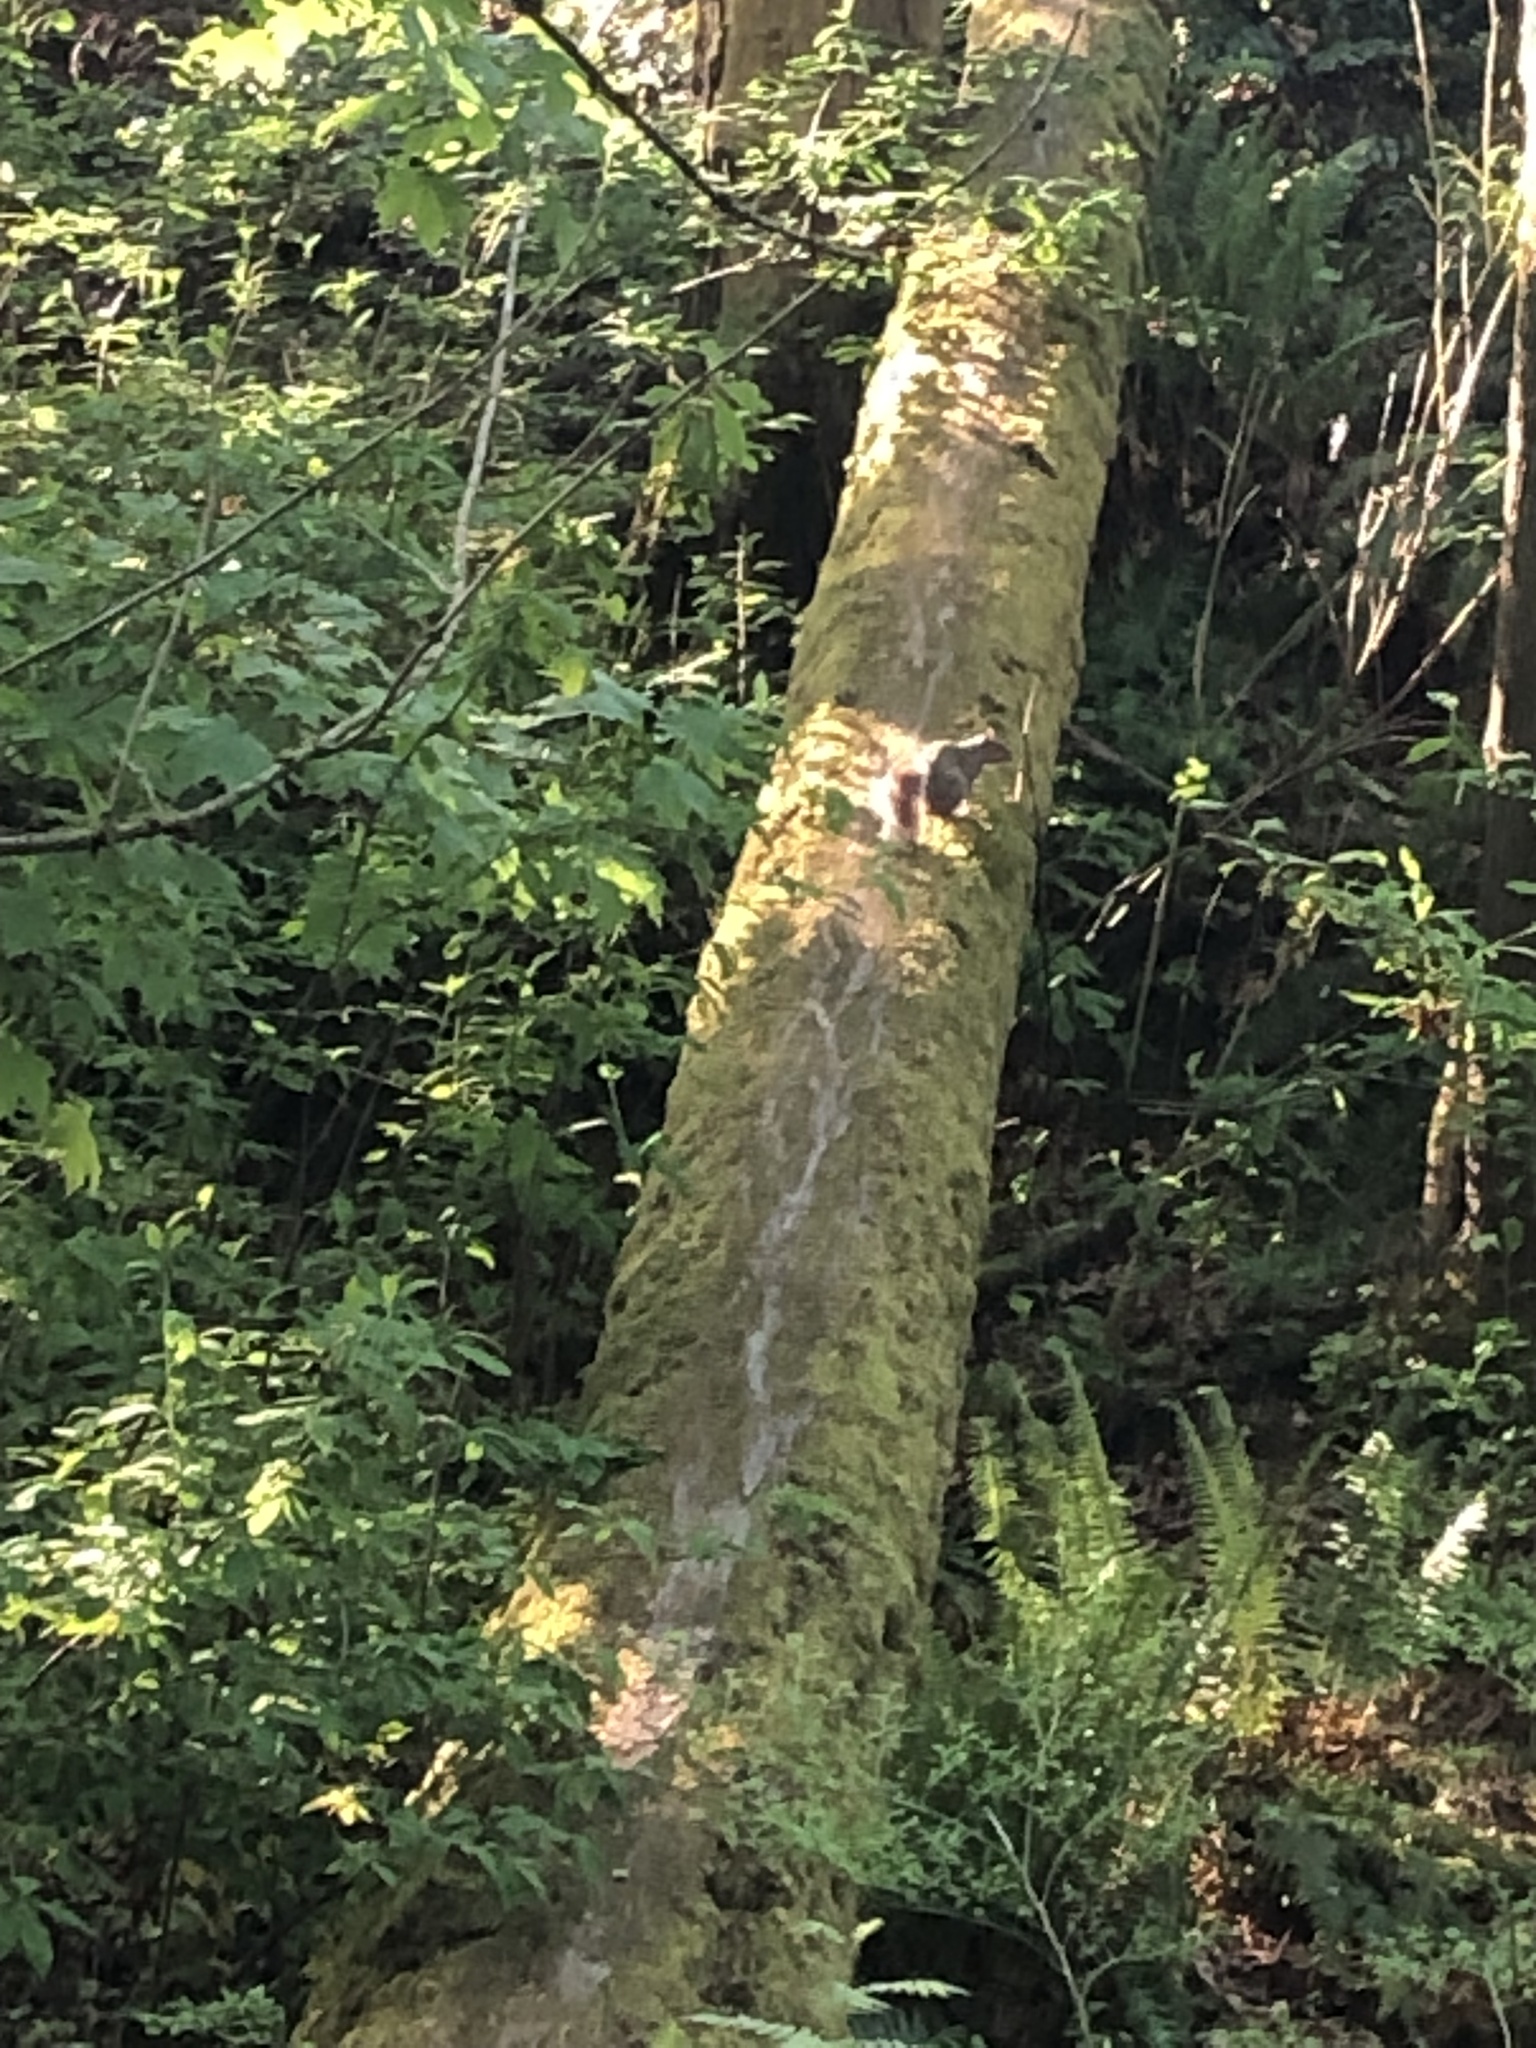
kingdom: Animalia
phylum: Chordata
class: Mammalia
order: Rodentia
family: Sciuridae
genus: Sciurus
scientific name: Sciurus carolinensis
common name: Eastern gray squirrel
